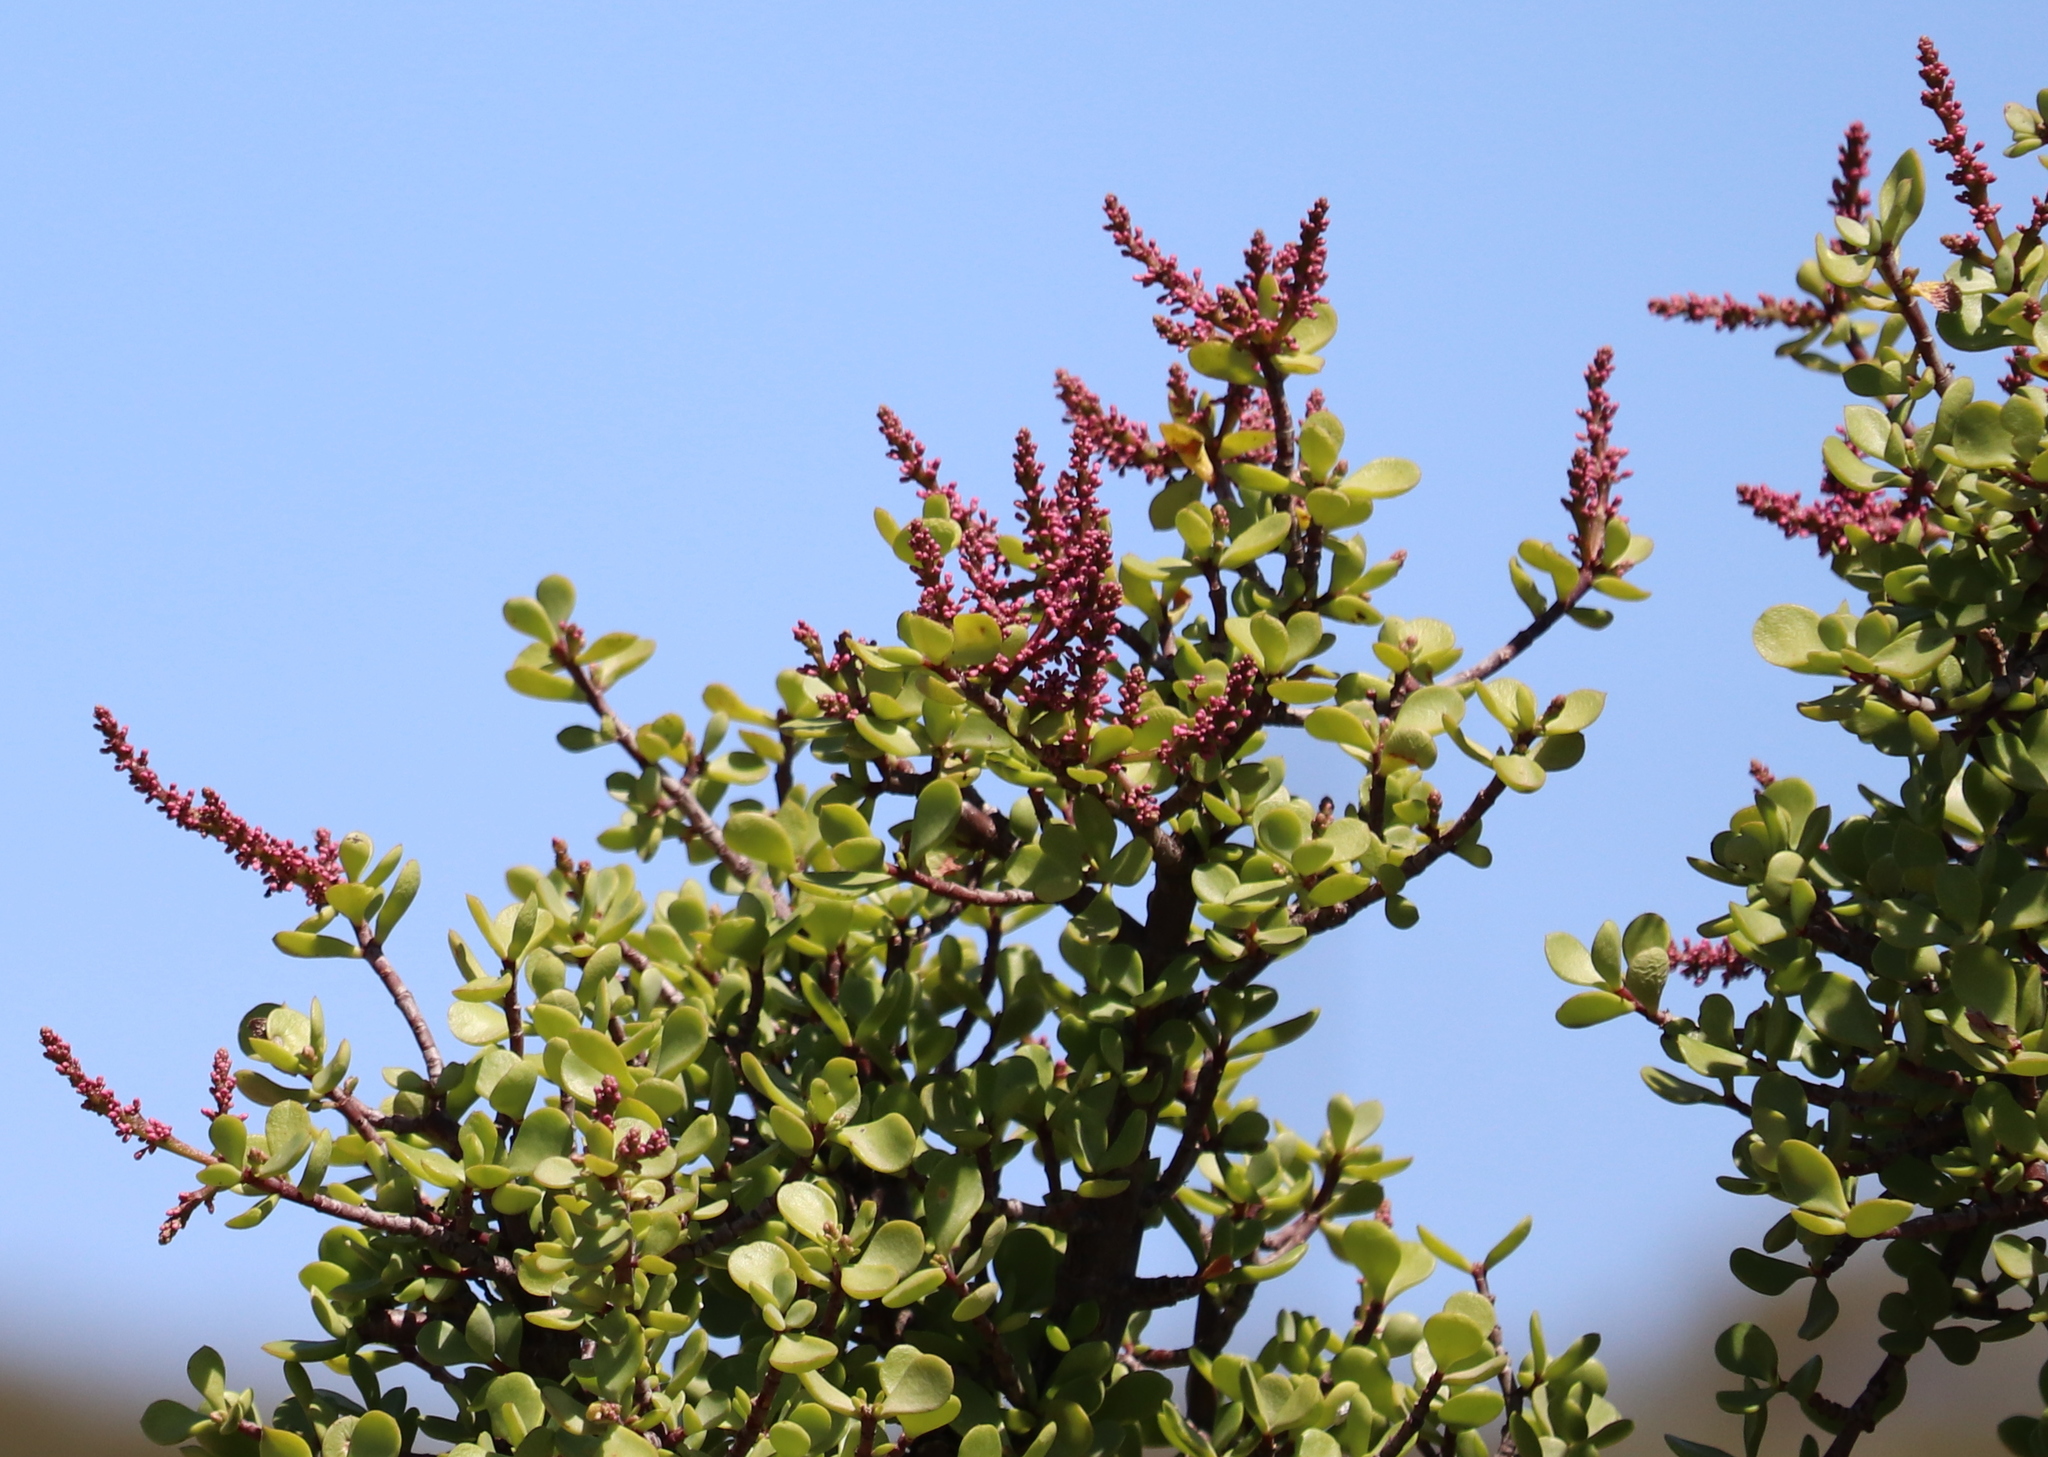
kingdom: Plantae
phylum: Tracheophyta
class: Magnoliopsida
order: Caryophyllales
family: Didiereaceae
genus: Portulacaria
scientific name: Portulacaria afra
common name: Elephant-bush
